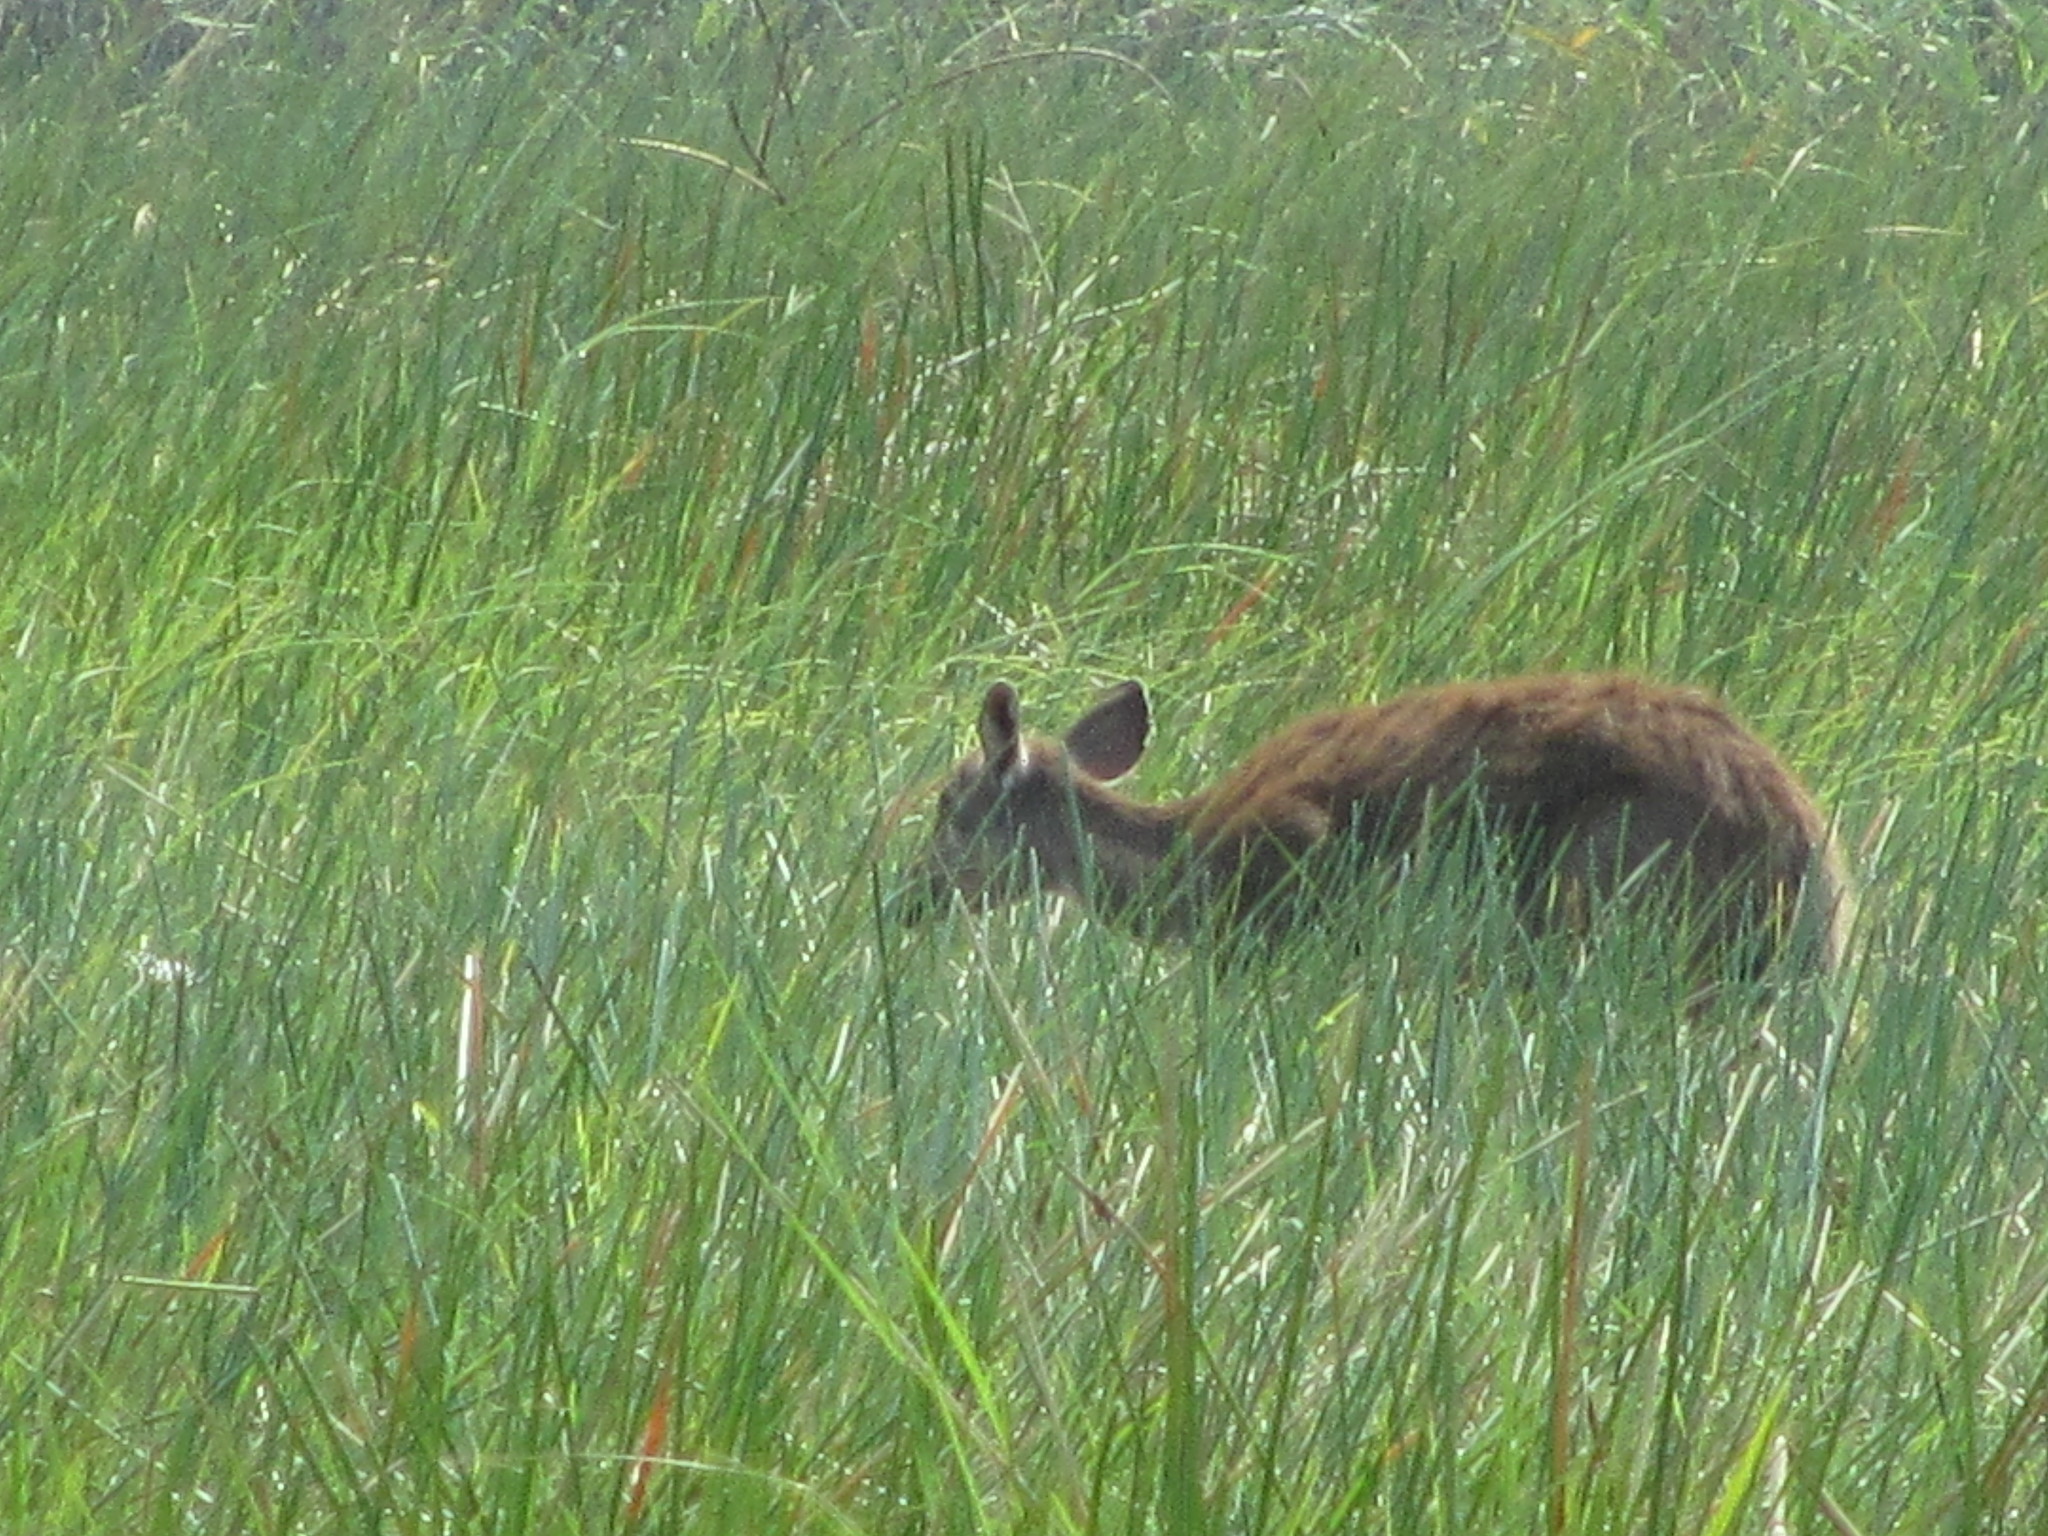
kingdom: Animalia
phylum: Chordata
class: Mammalia
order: Artiodactyla
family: Bovidae
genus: Tragelaphus
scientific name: Tragelaphus spekii
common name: Sitatunga
